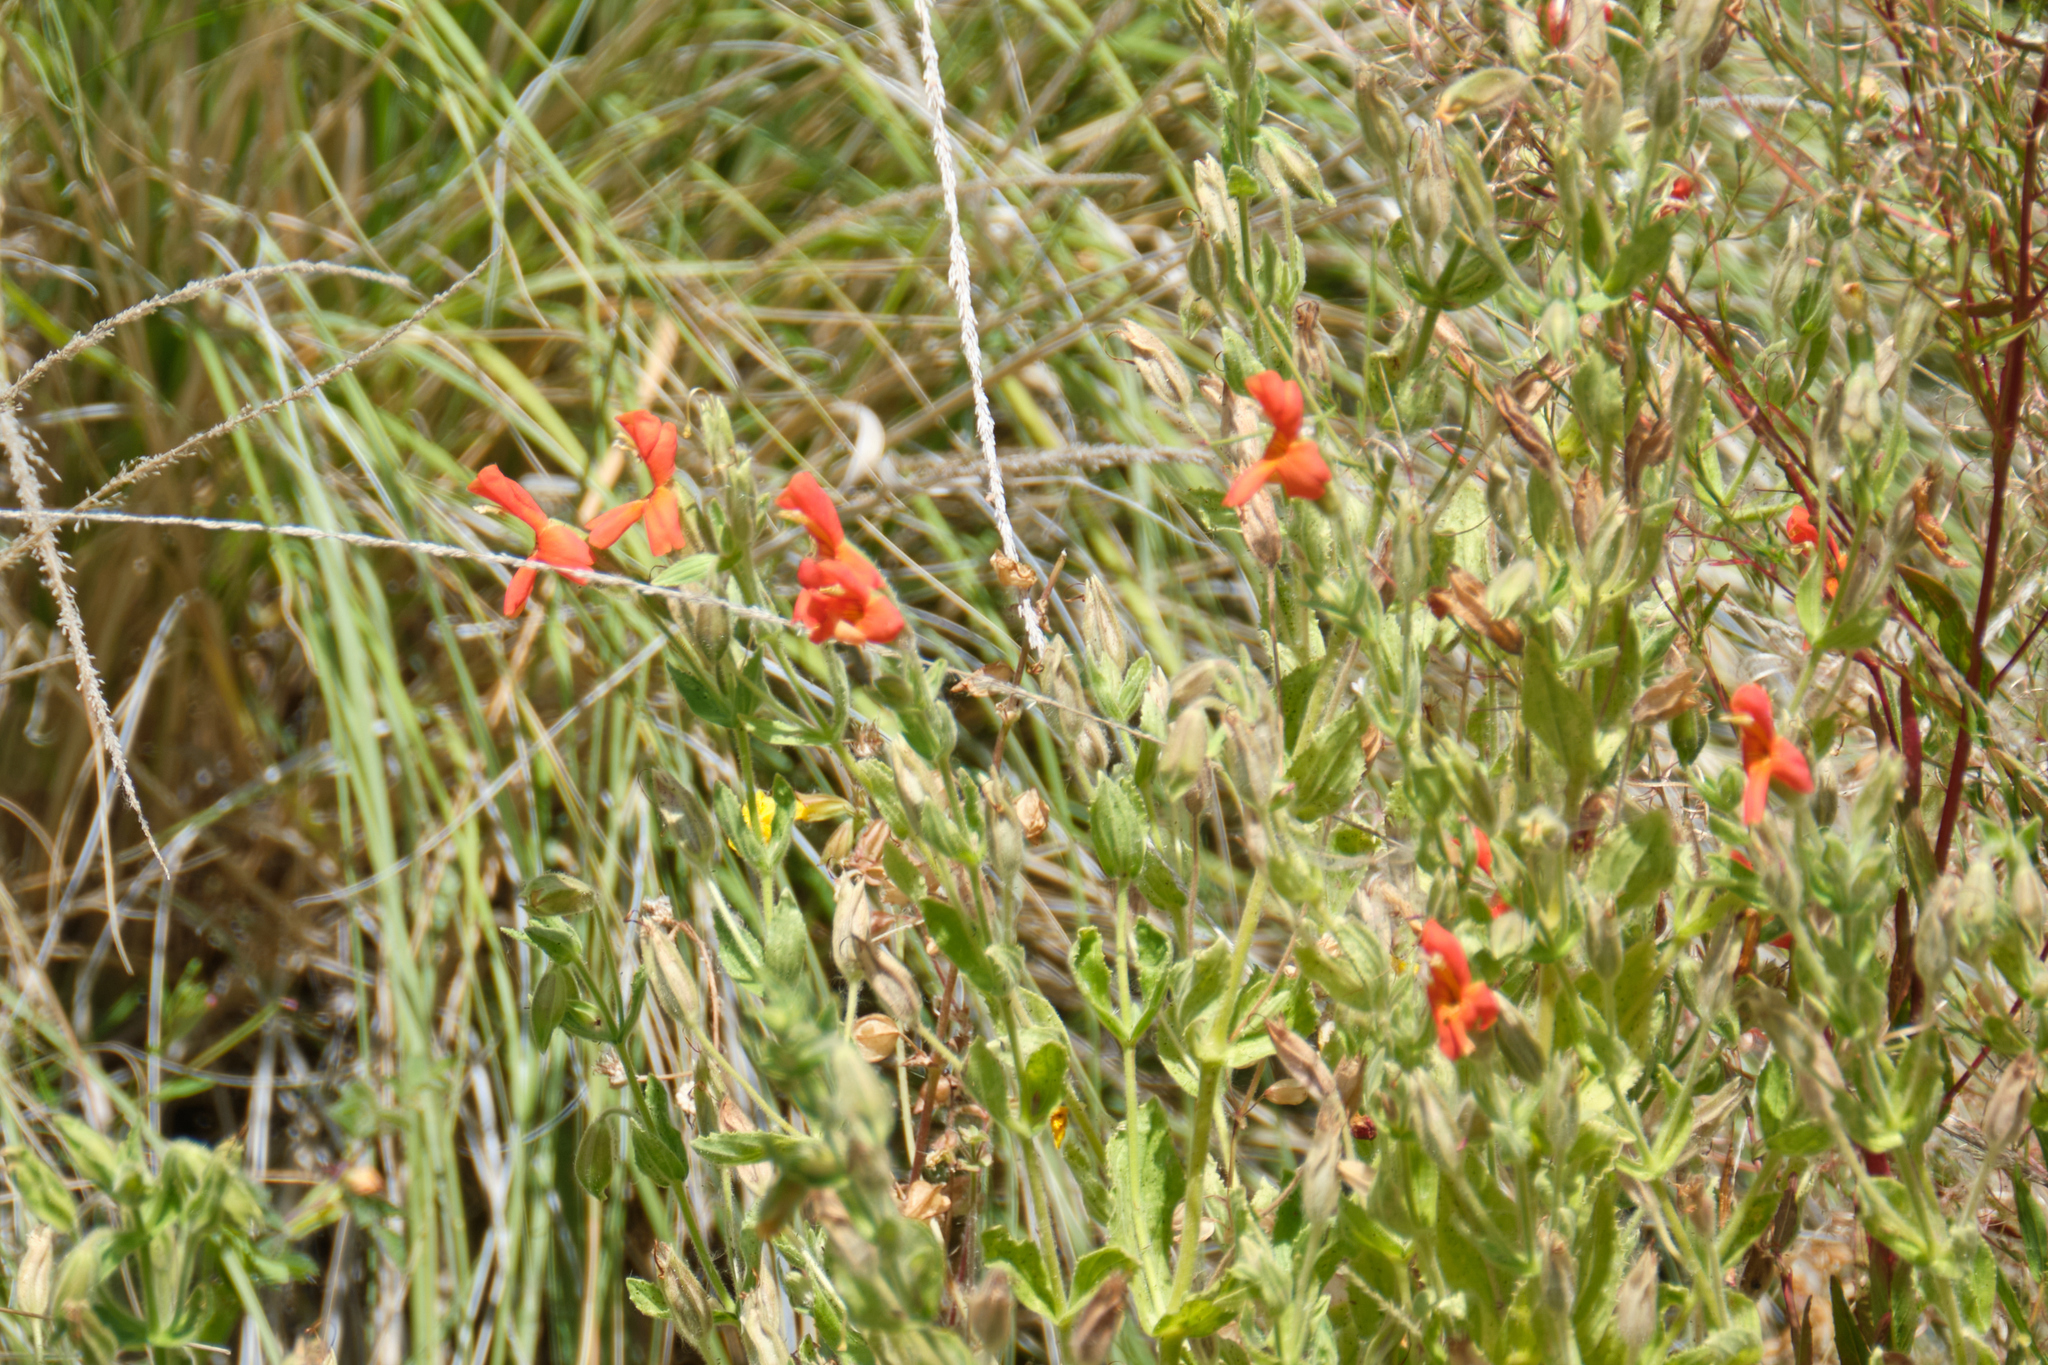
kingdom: Plantae
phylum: Tracheophyta
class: Magnoliopsida
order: Lamiales
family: Phrymaceae
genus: Erythranthe
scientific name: Erythranthe cardinalis
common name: Scarlet monkey-flower
